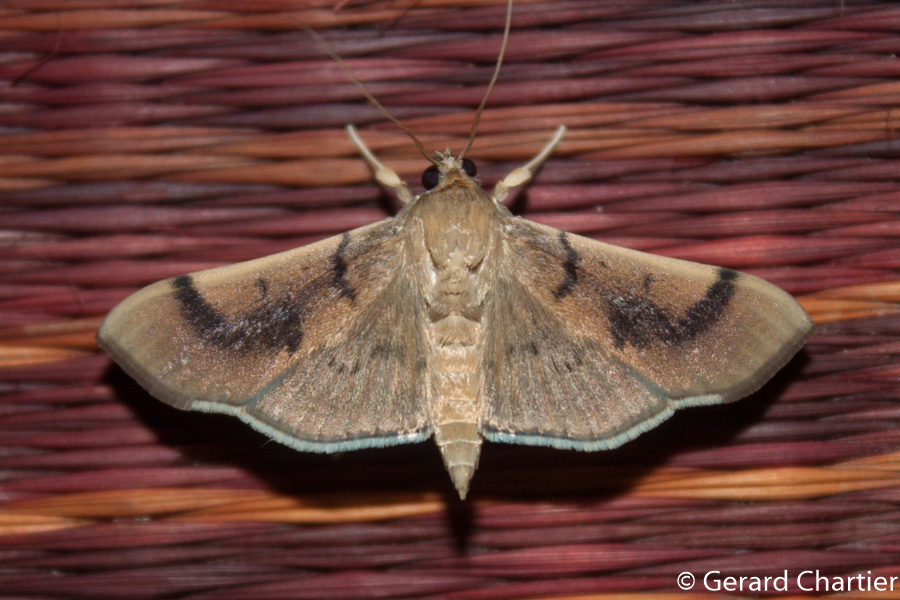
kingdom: Animalia
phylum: Arthropoda
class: Insecta
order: Lepidoptera
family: Crambidae
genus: Omiodes
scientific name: Omiodes
